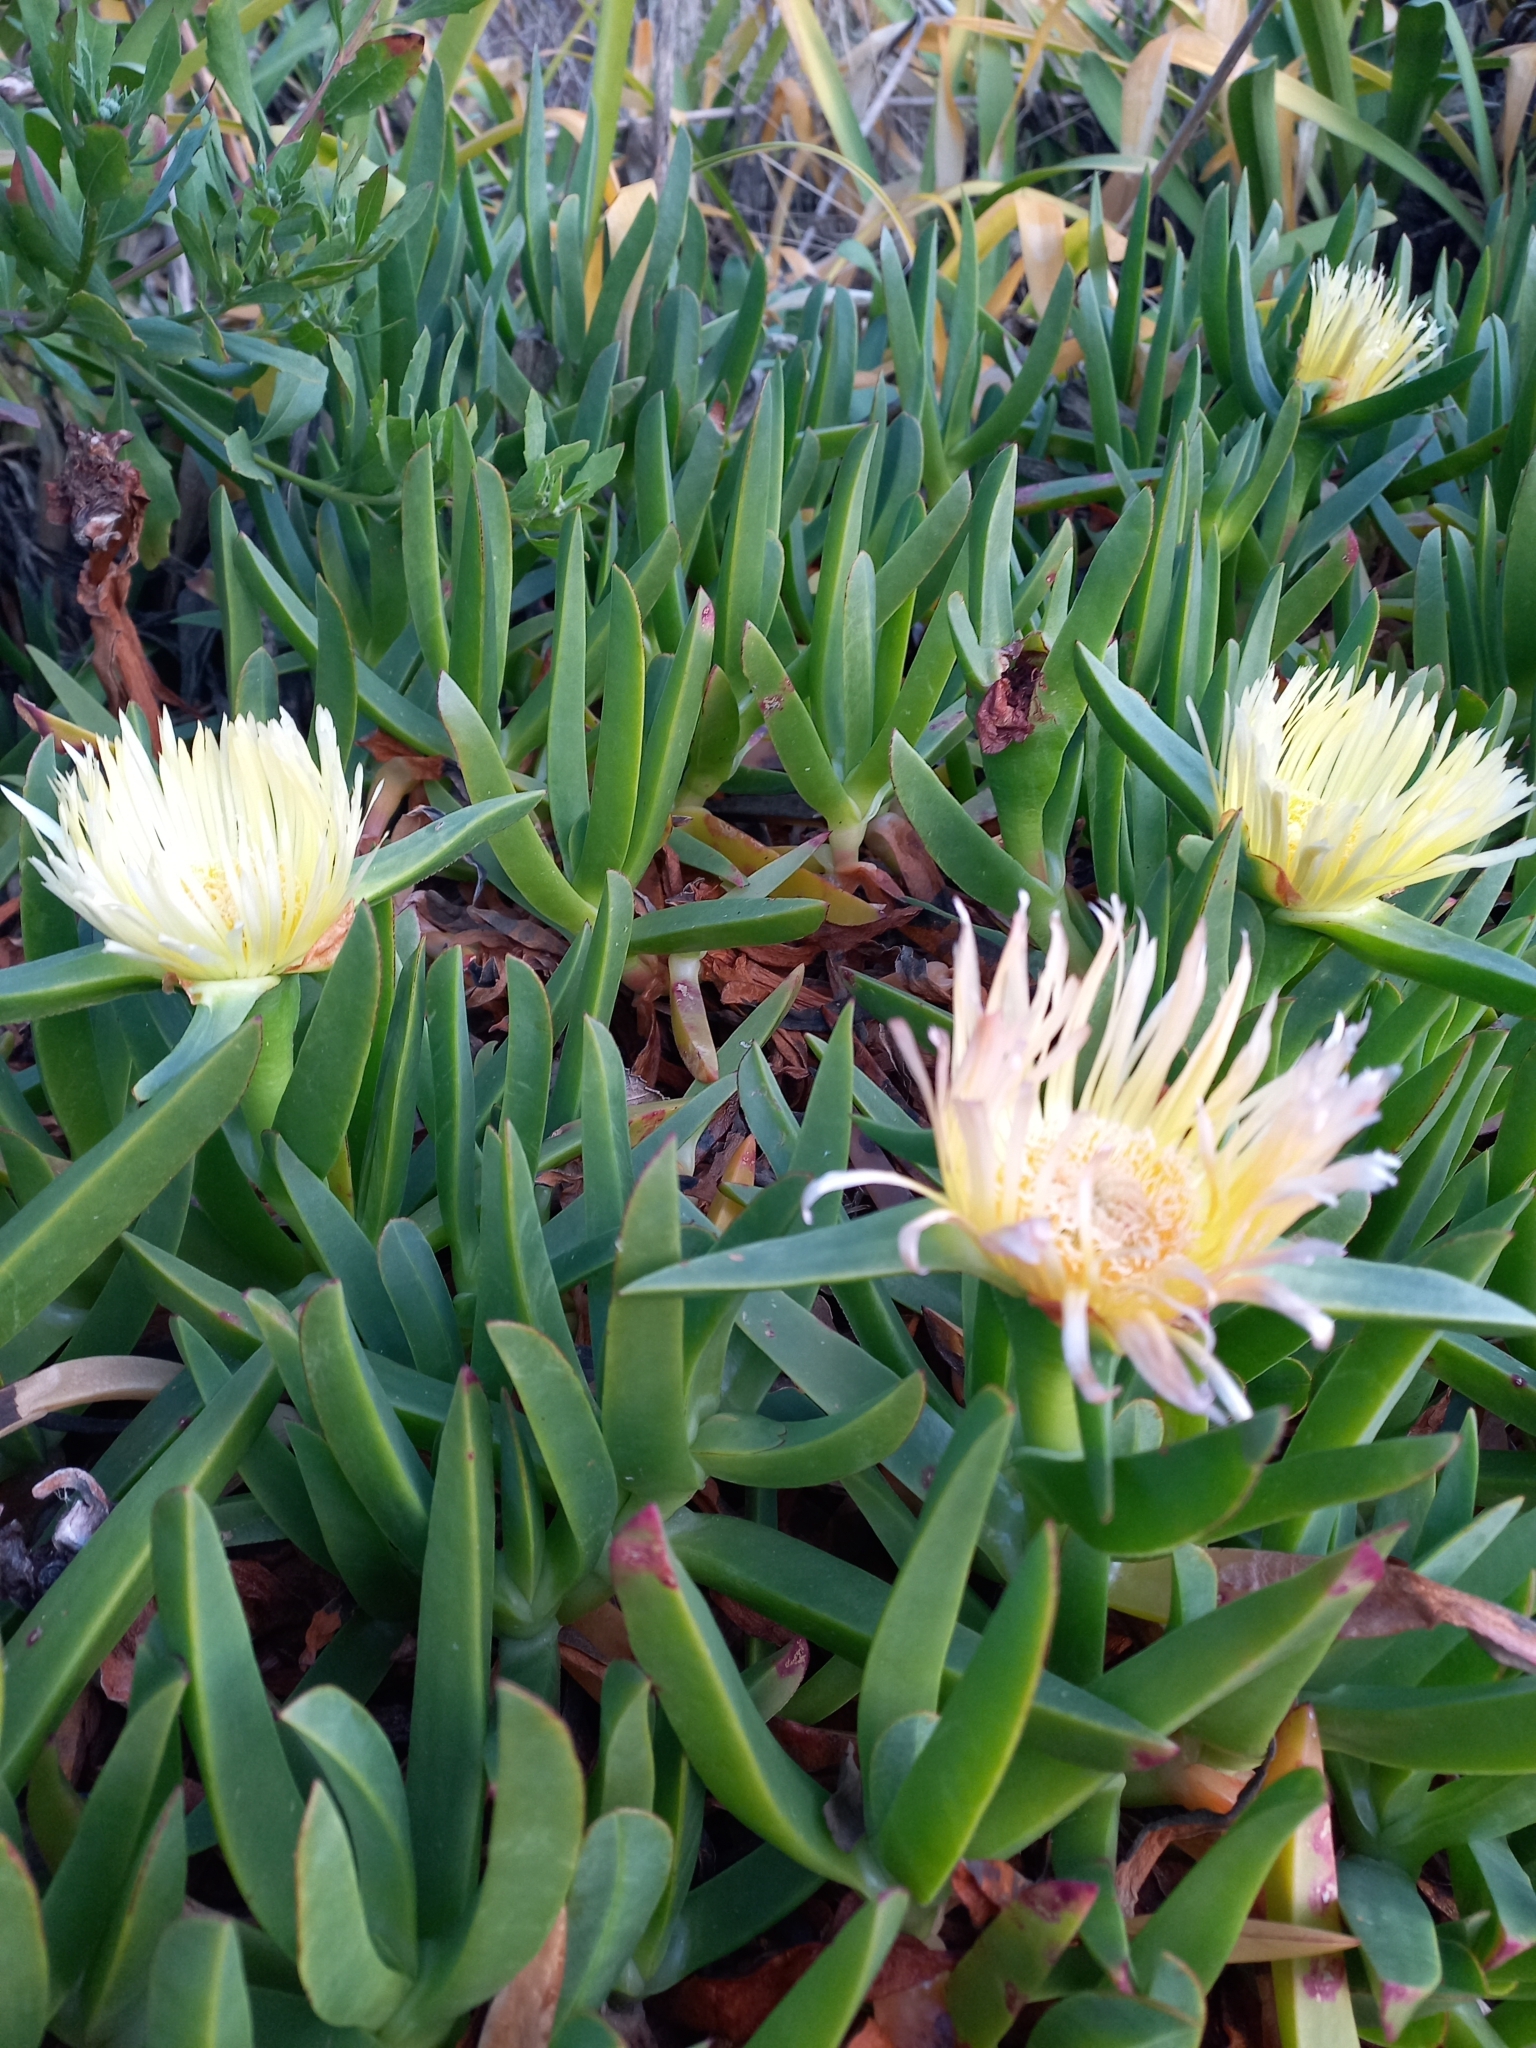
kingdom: Plantae
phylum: Tracheophyta
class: Magnoliopsida
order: Caryophyllales
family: Aizoaceae
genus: Carpobrotus
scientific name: Carpobrotus edulis
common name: Hottentot-fig
